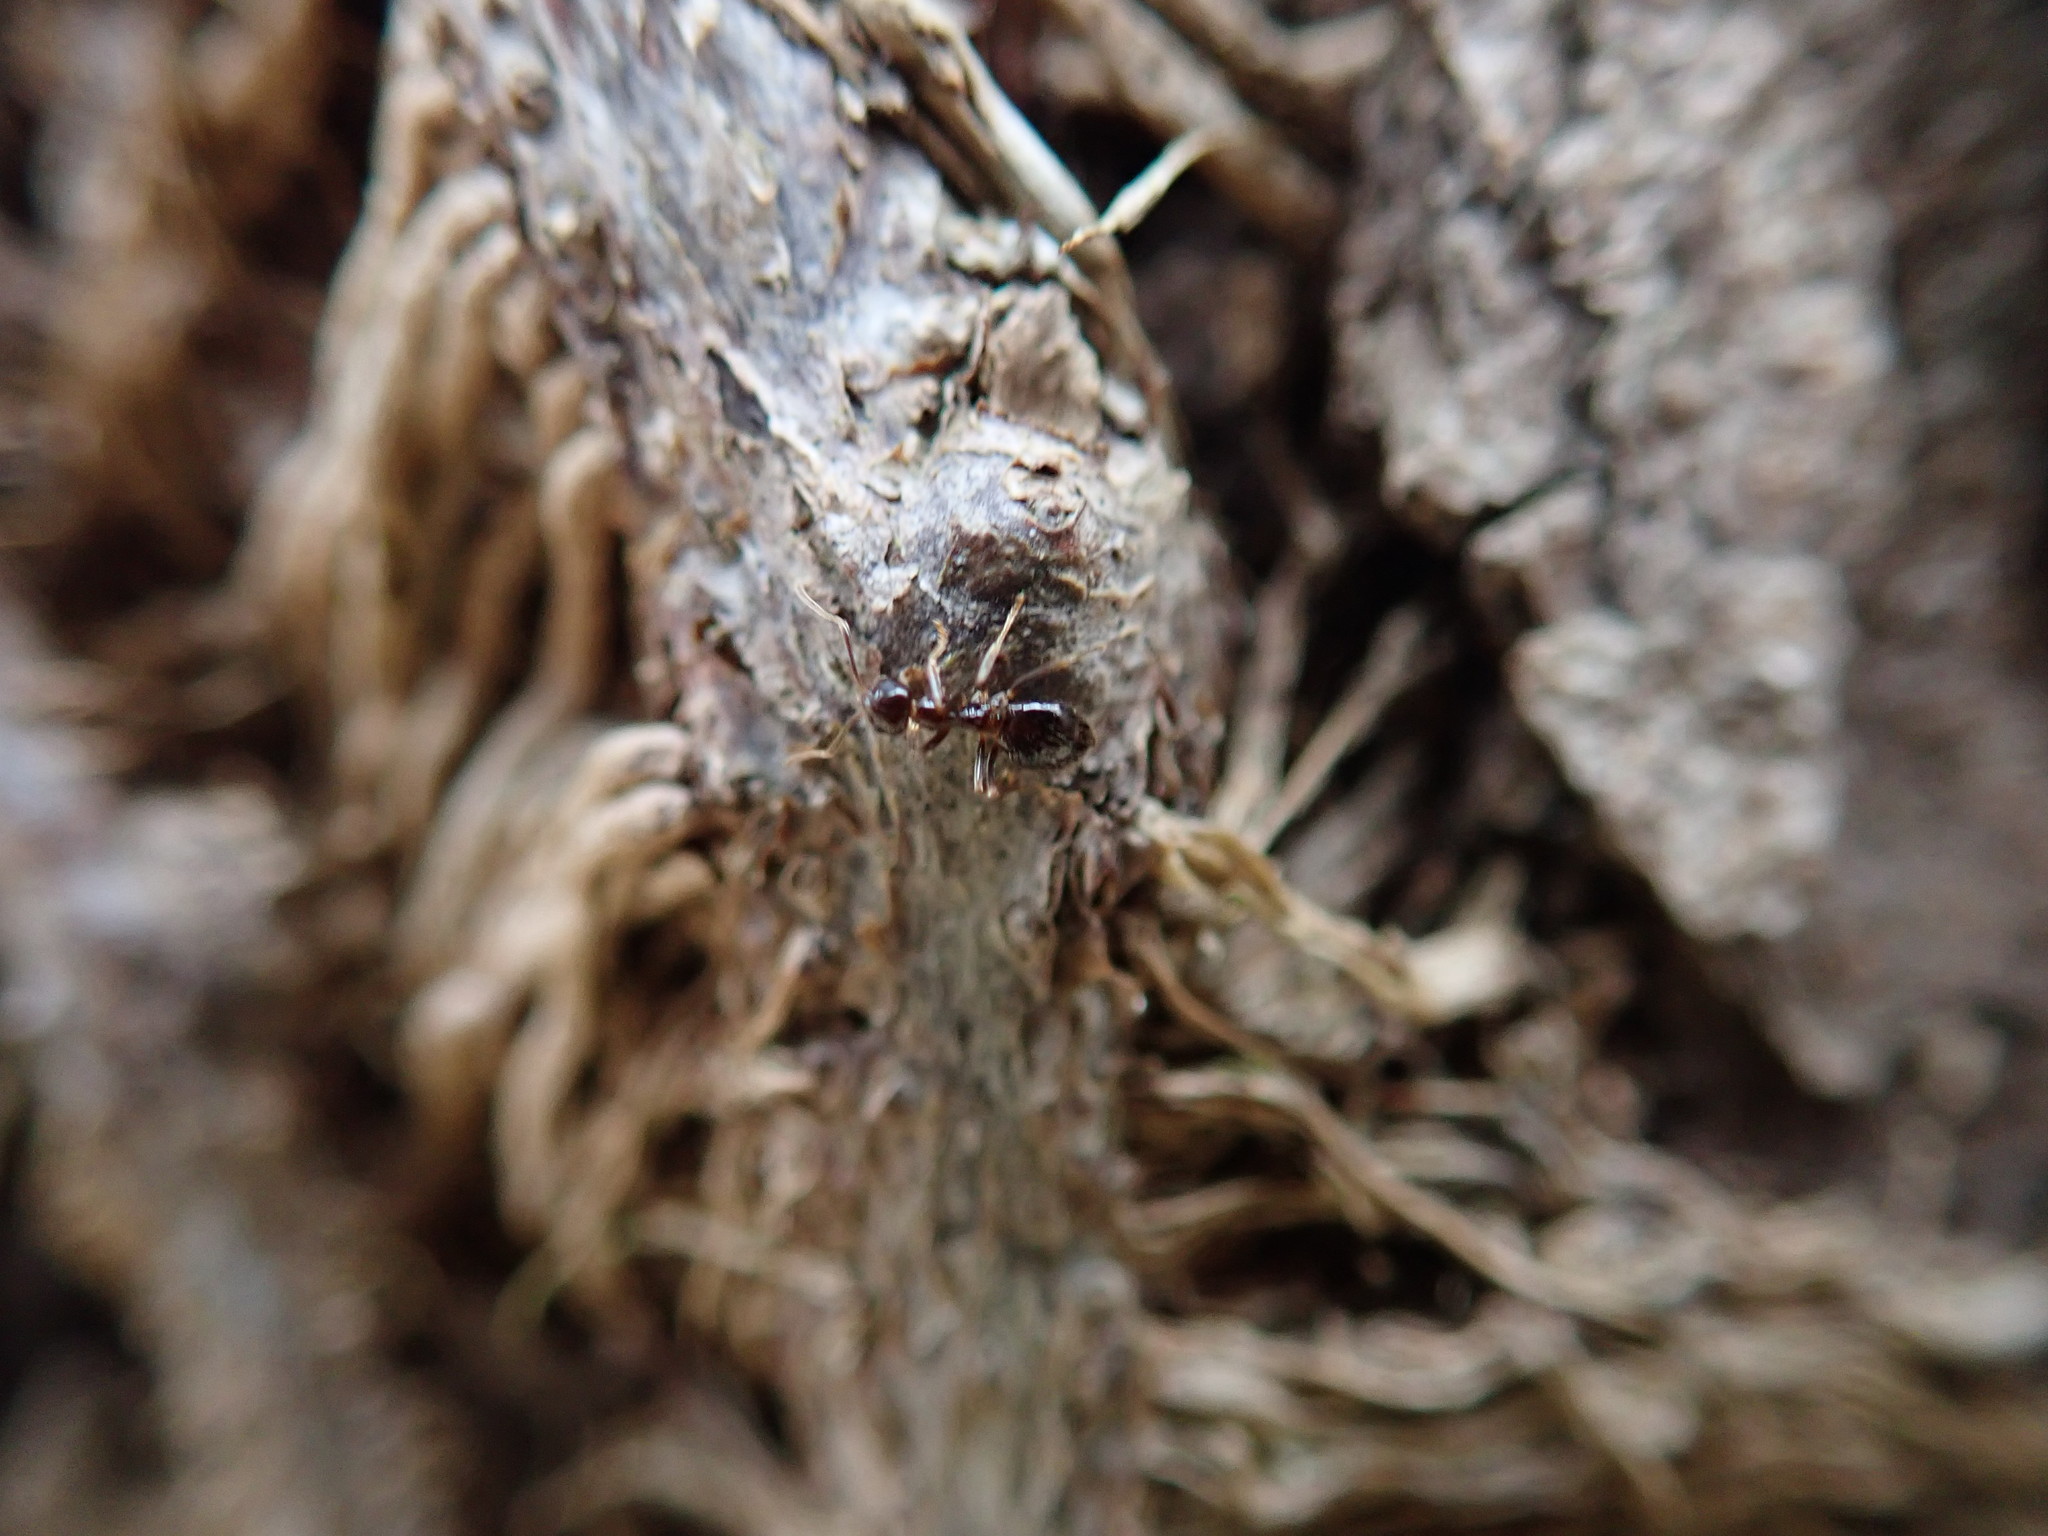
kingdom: Animalia
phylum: Arthropoda
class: Insecta
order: Hymenoptera
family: Formicidae
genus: Prenolepis
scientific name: Prenolepis imparis
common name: Small honey ant
